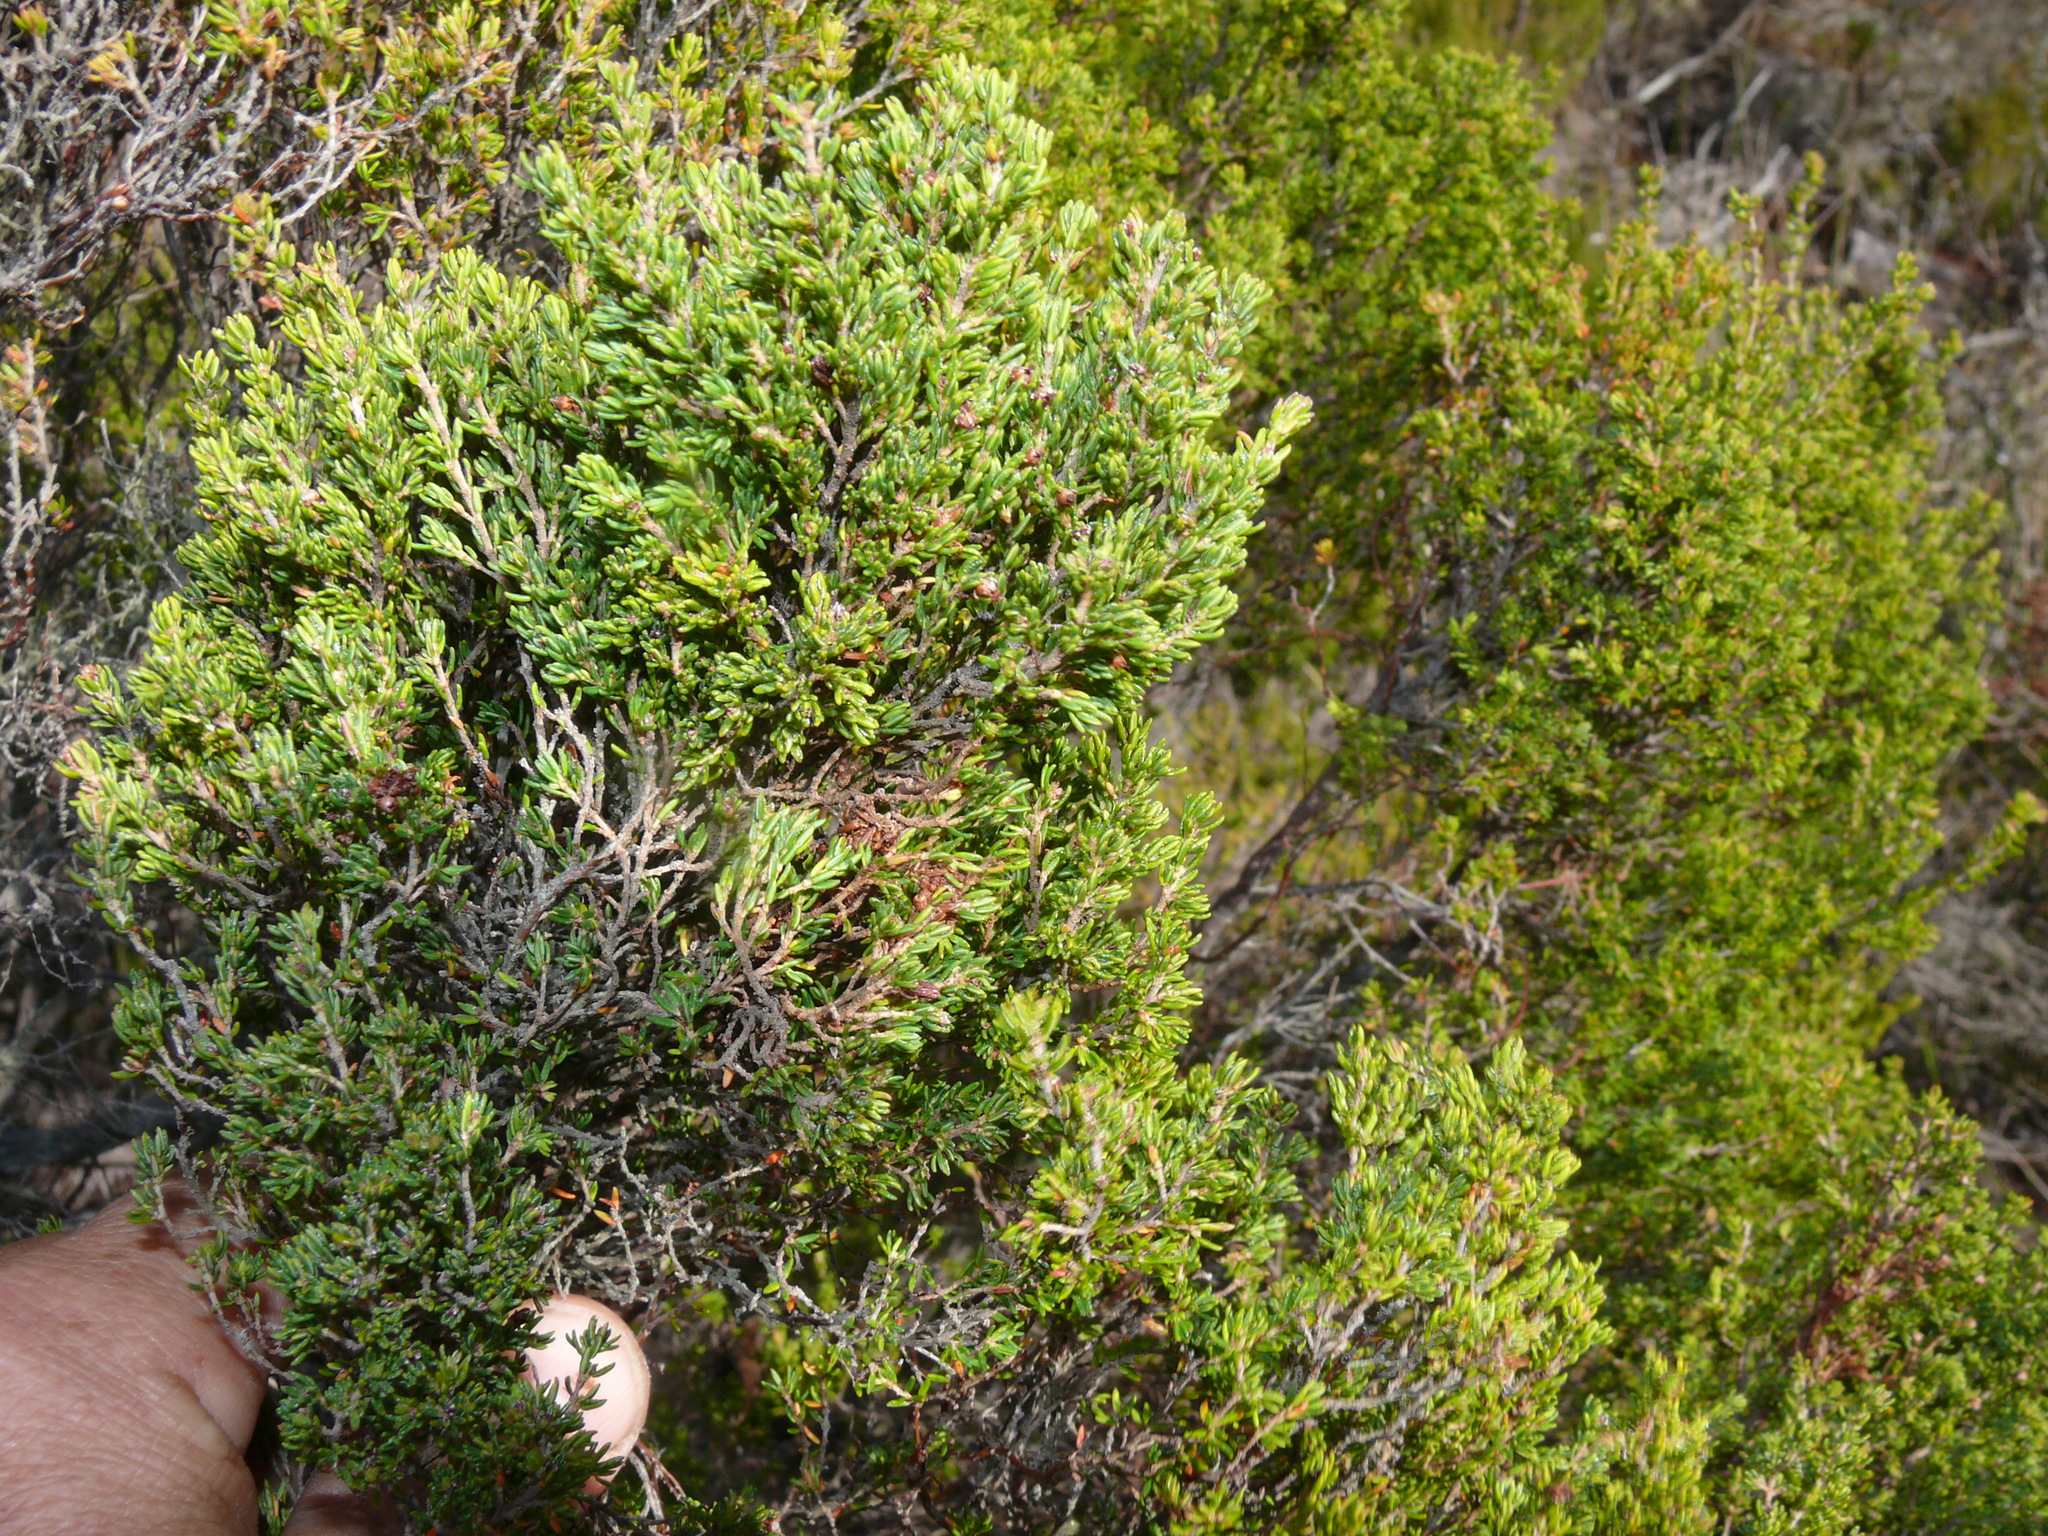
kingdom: Plantae
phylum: Tracheophyta
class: Magnoliopsida
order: Ericales
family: Ericaceae
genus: Erica
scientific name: Erica tristis
